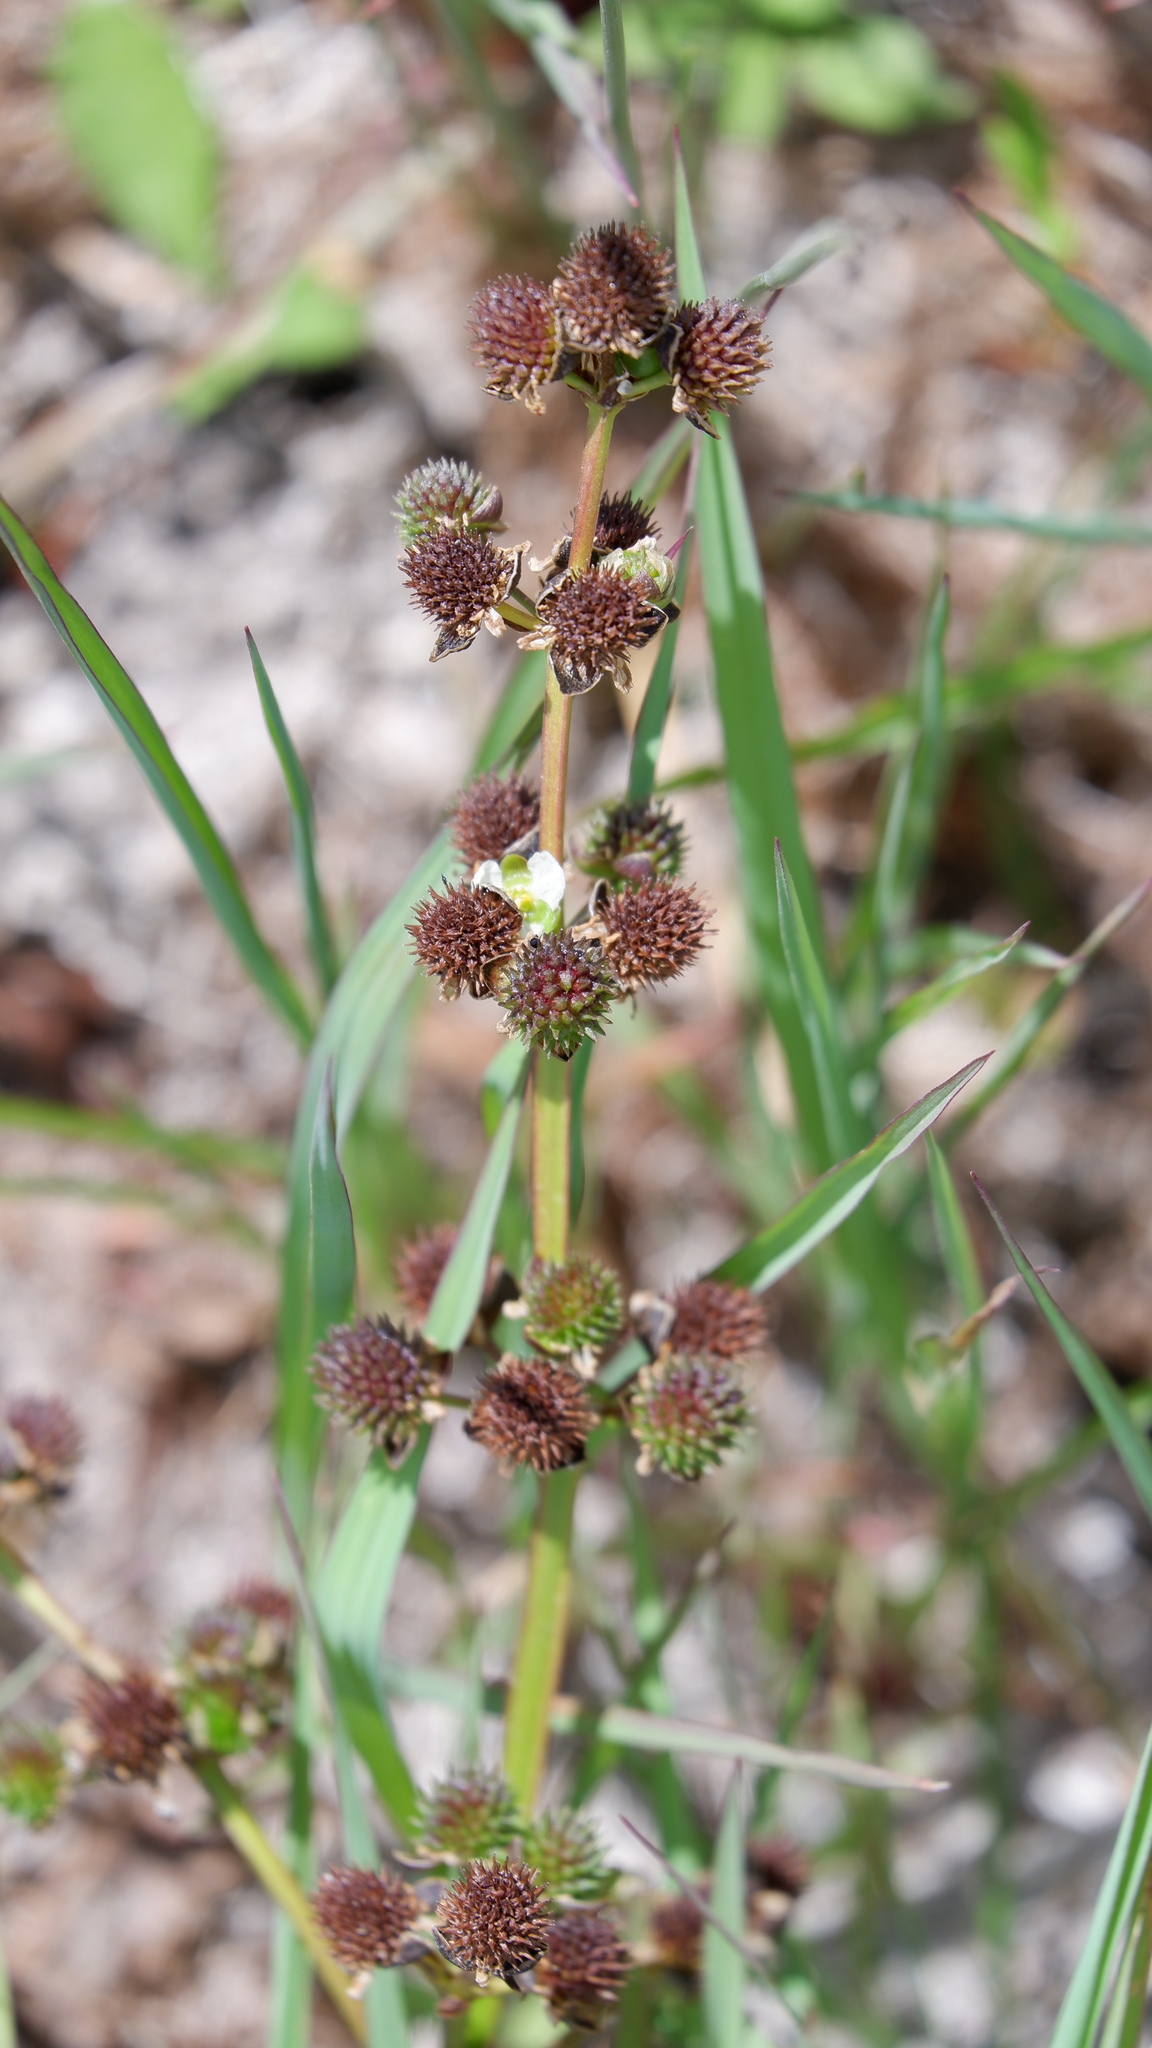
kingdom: Plantae
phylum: Tracheophyta
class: Liliopsida
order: Alismatales
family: Alismataceae
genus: Echinodorus
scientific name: Echinodorus berteroi
